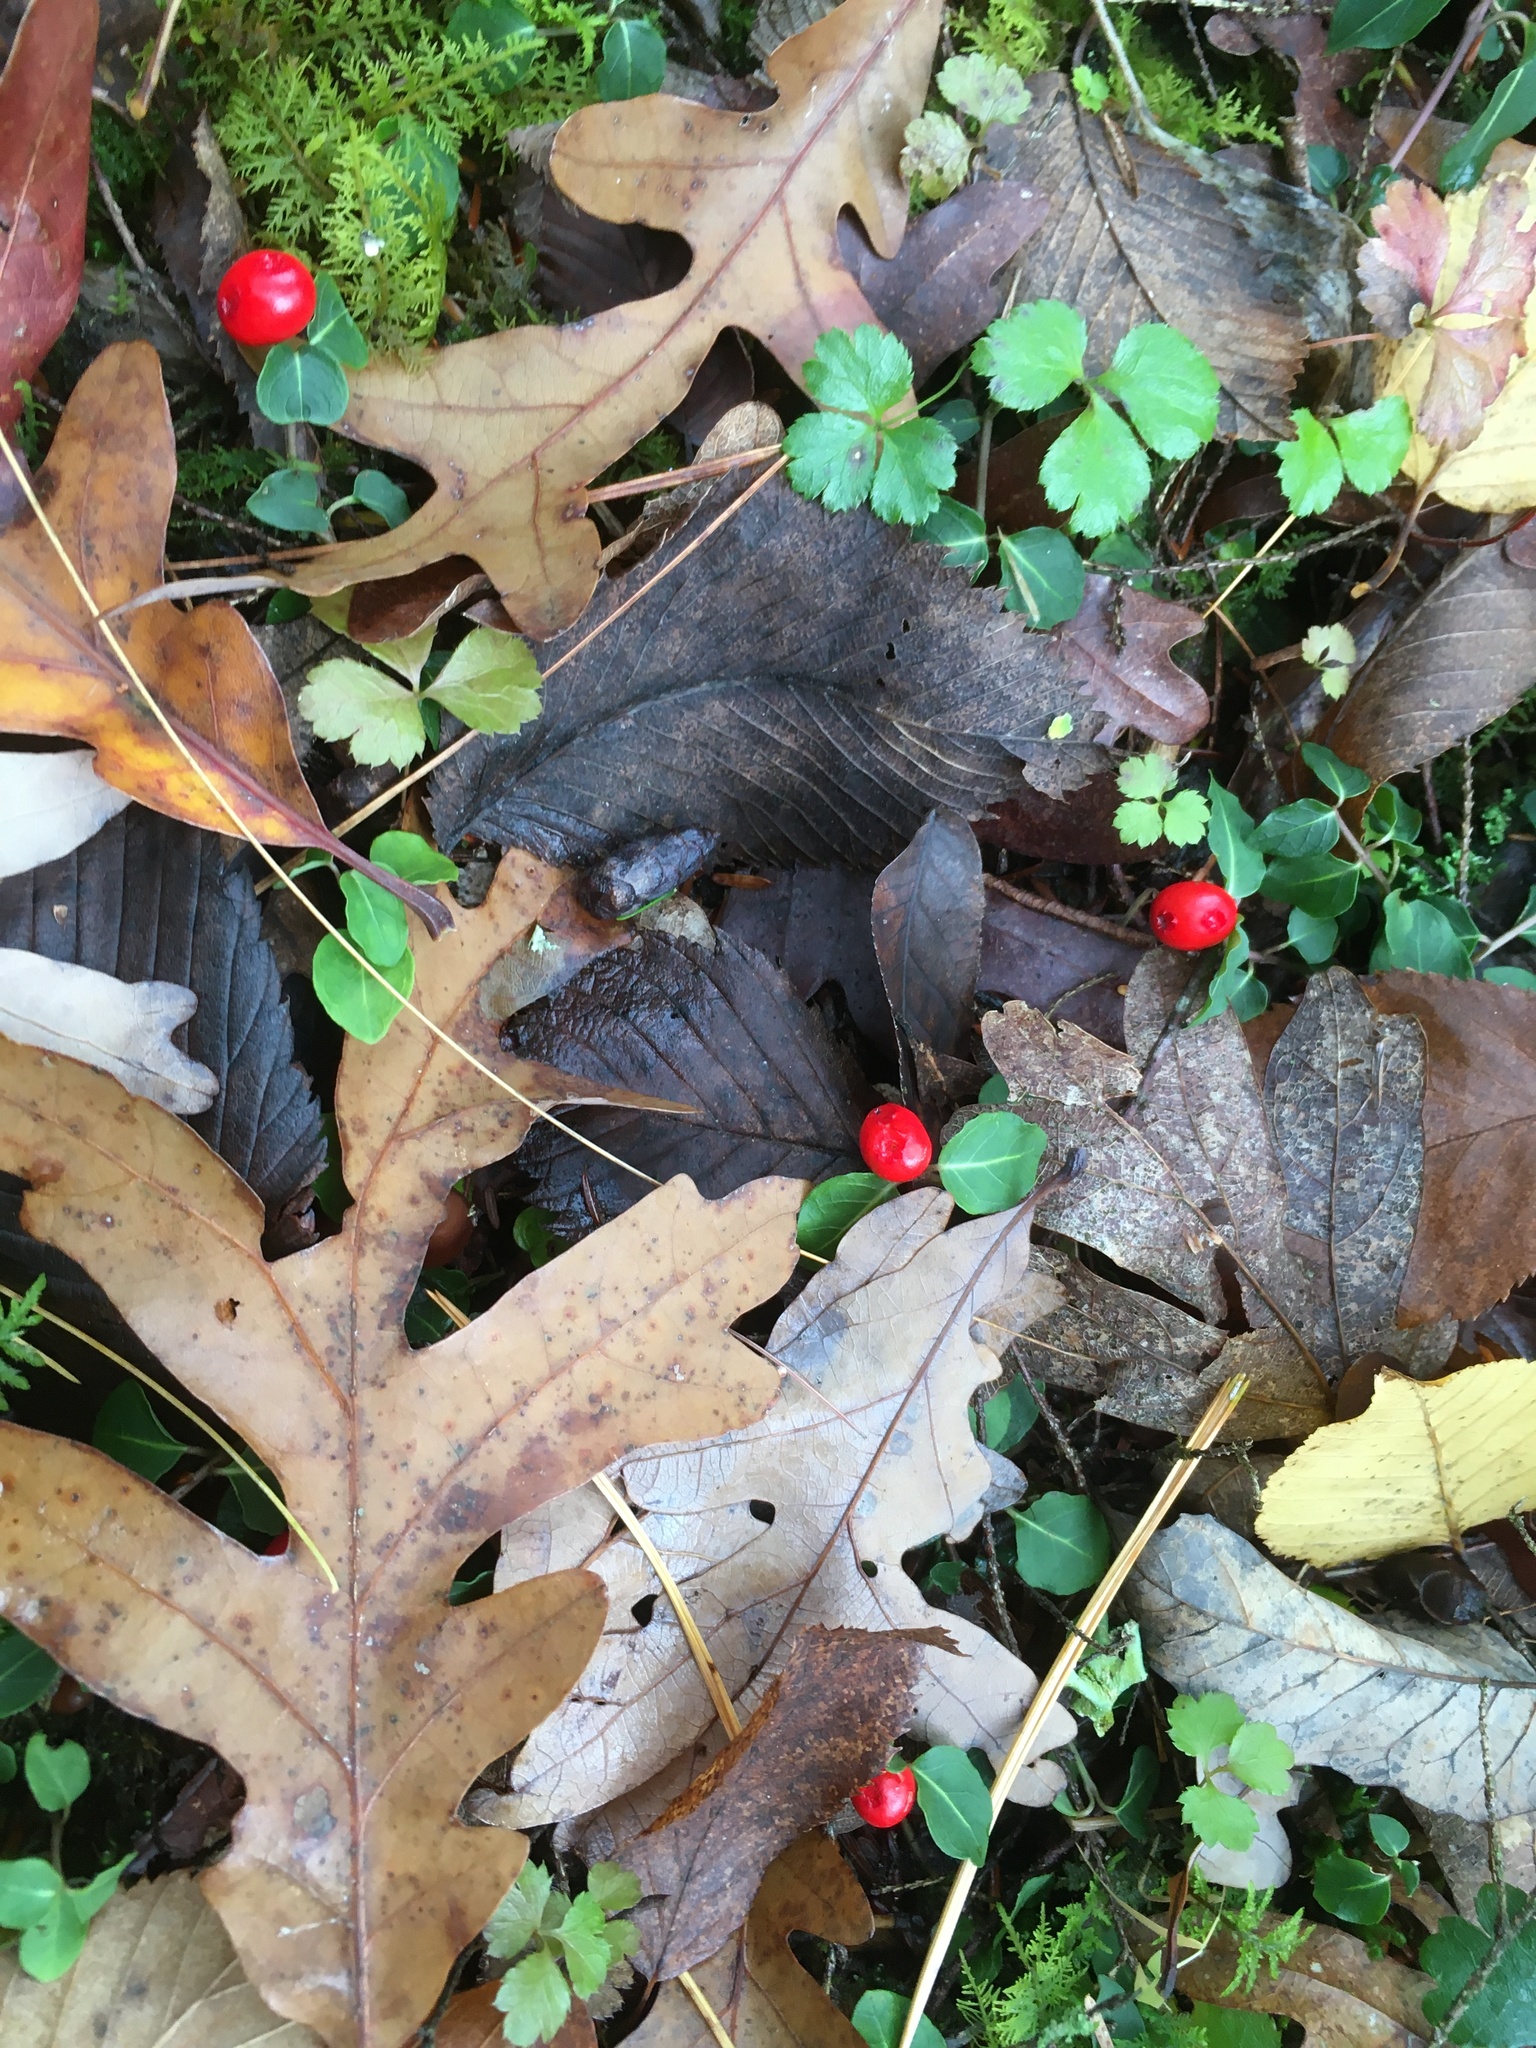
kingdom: Plantae
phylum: Tracheophyta
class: Magnoliopsida
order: Gentianales
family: Rubiaceae
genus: Mitchella
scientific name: Mitchella repens
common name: Partridge-berry
